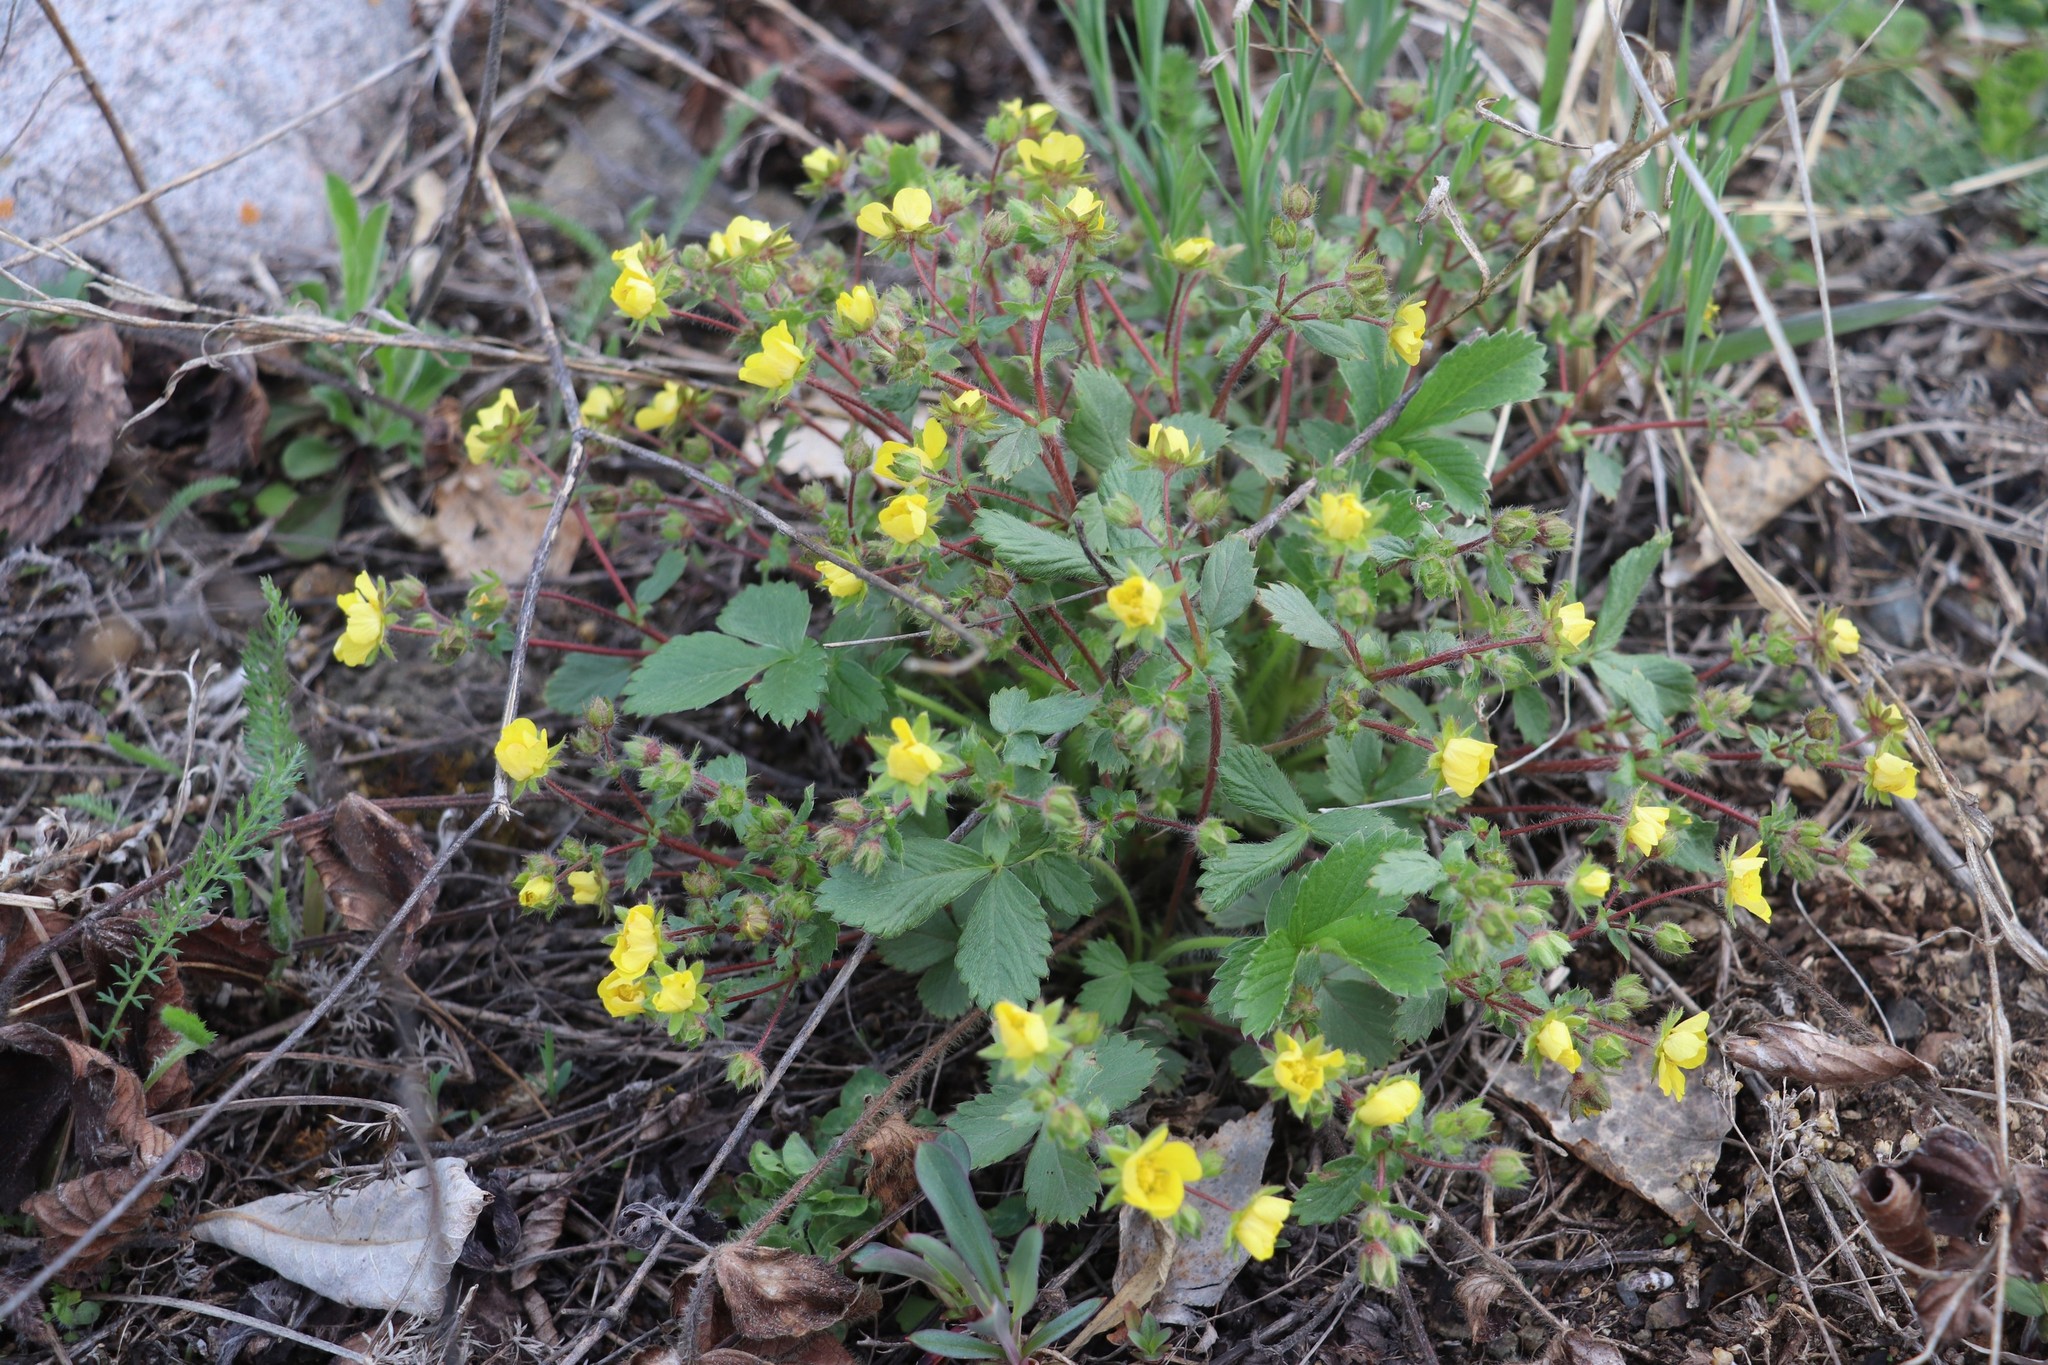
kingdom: Plantae
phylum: Tracheophyta
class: Magnoliopsida
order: Rosales
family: Rosaceae
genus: Potentilla
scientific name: Potentilla fragarioides
